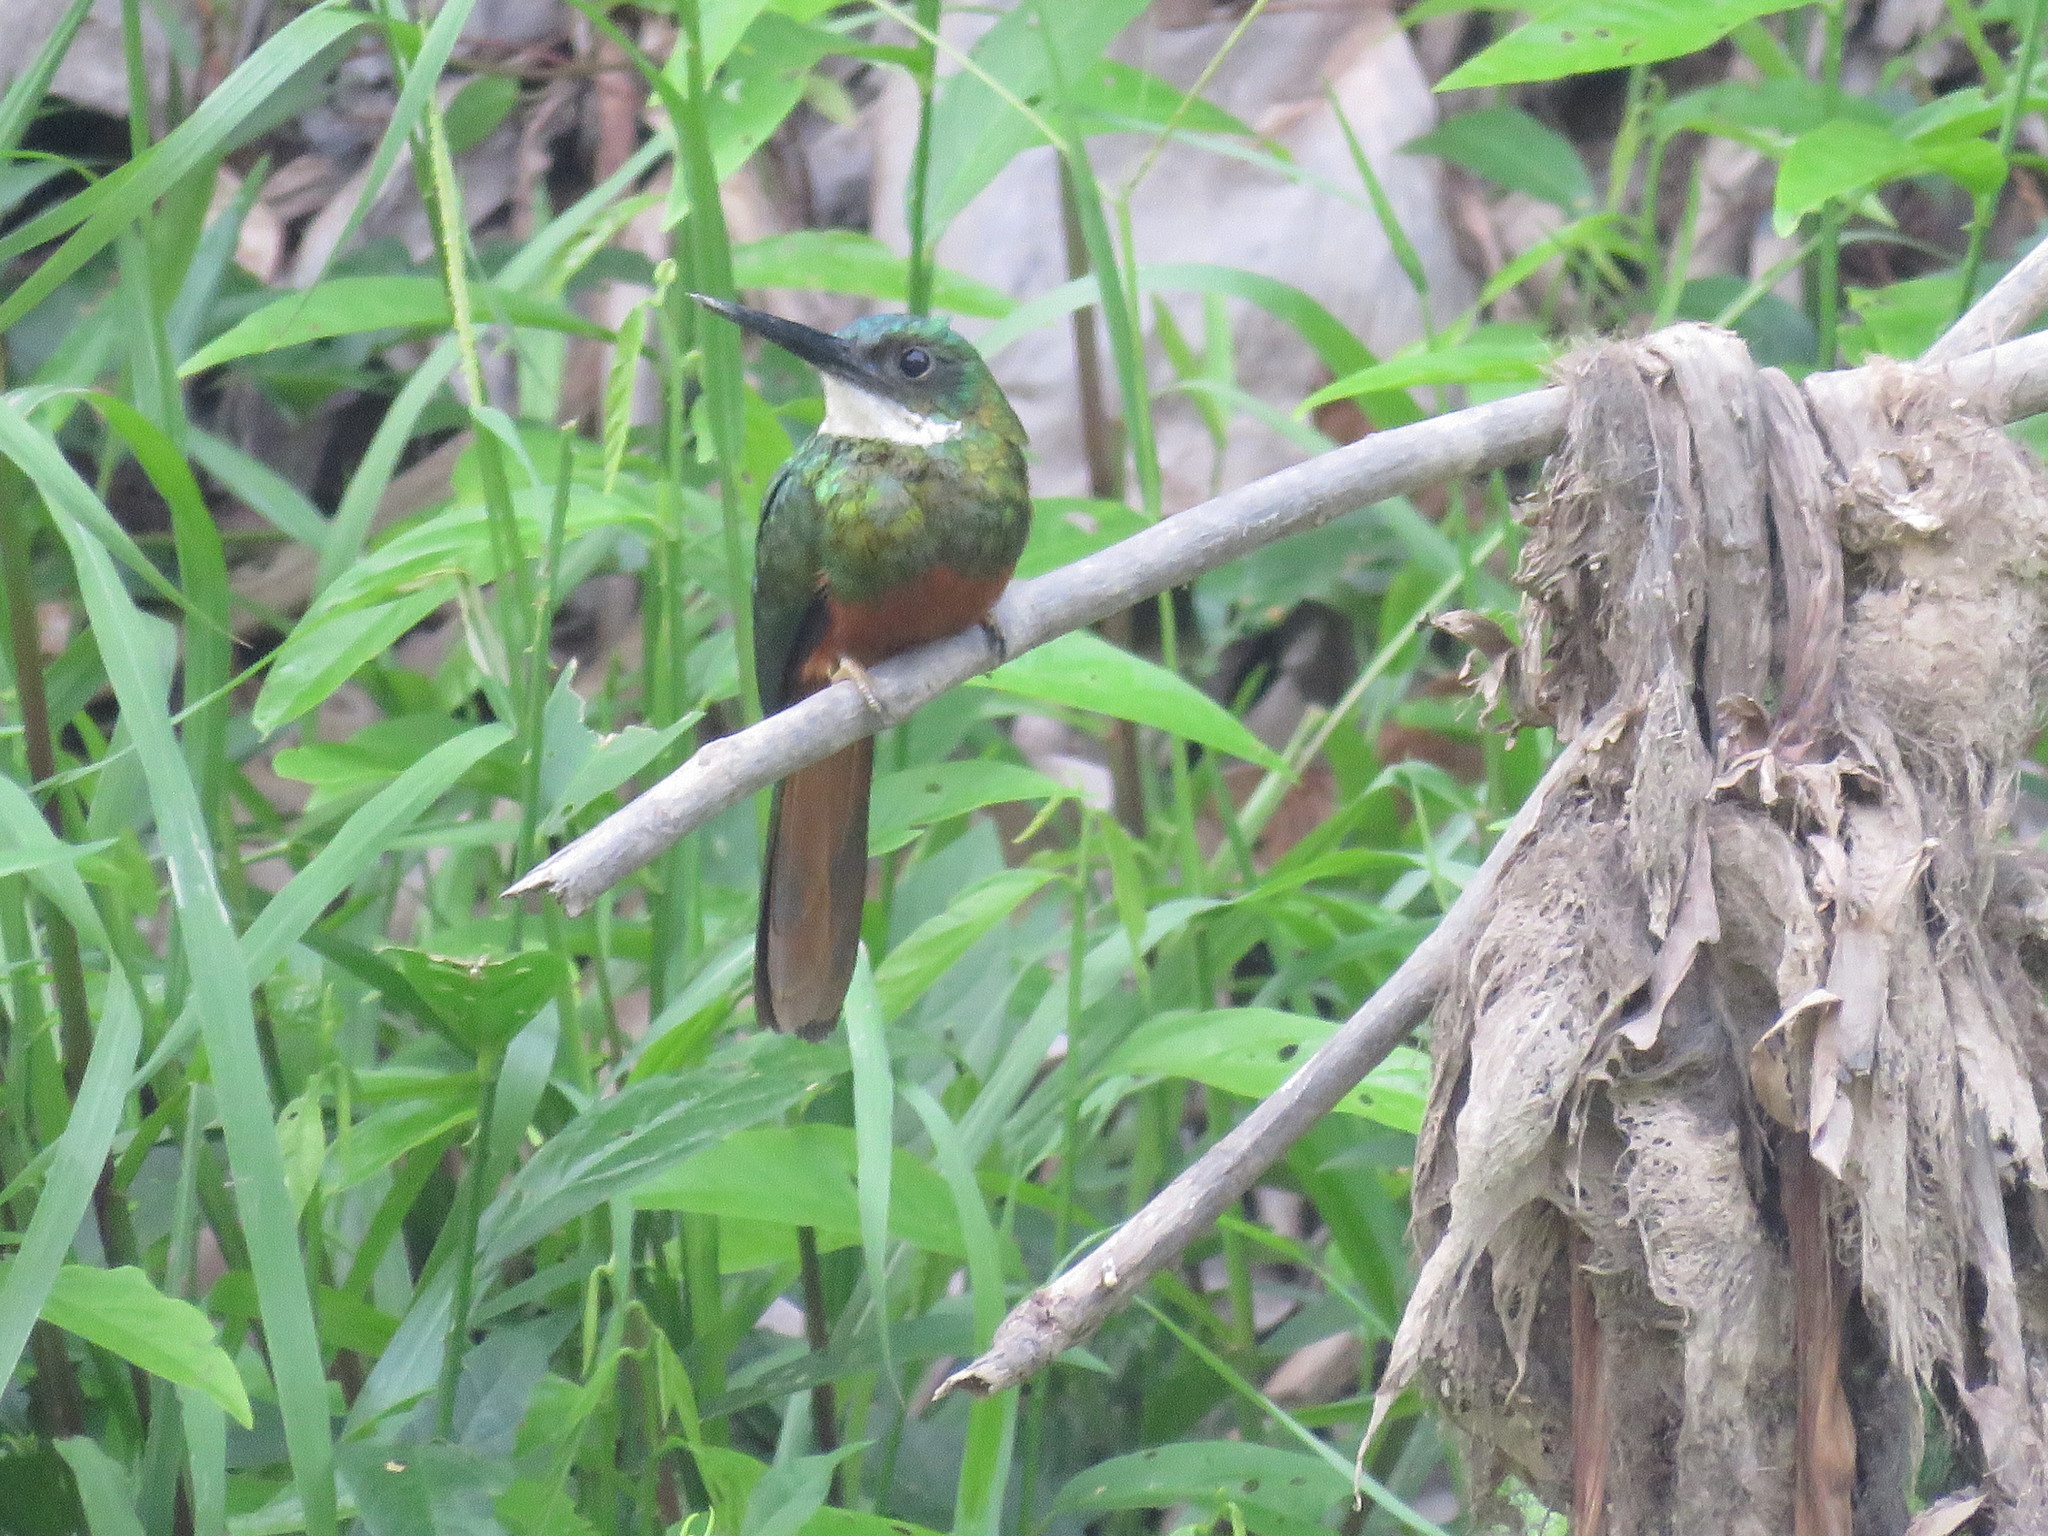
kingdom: Animalia
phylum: Chordata
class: Aves
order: Piciformes
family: Galbulidae
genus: Galbula
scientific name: Galbula ruficauda
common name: Rufous-tailed jacamar
